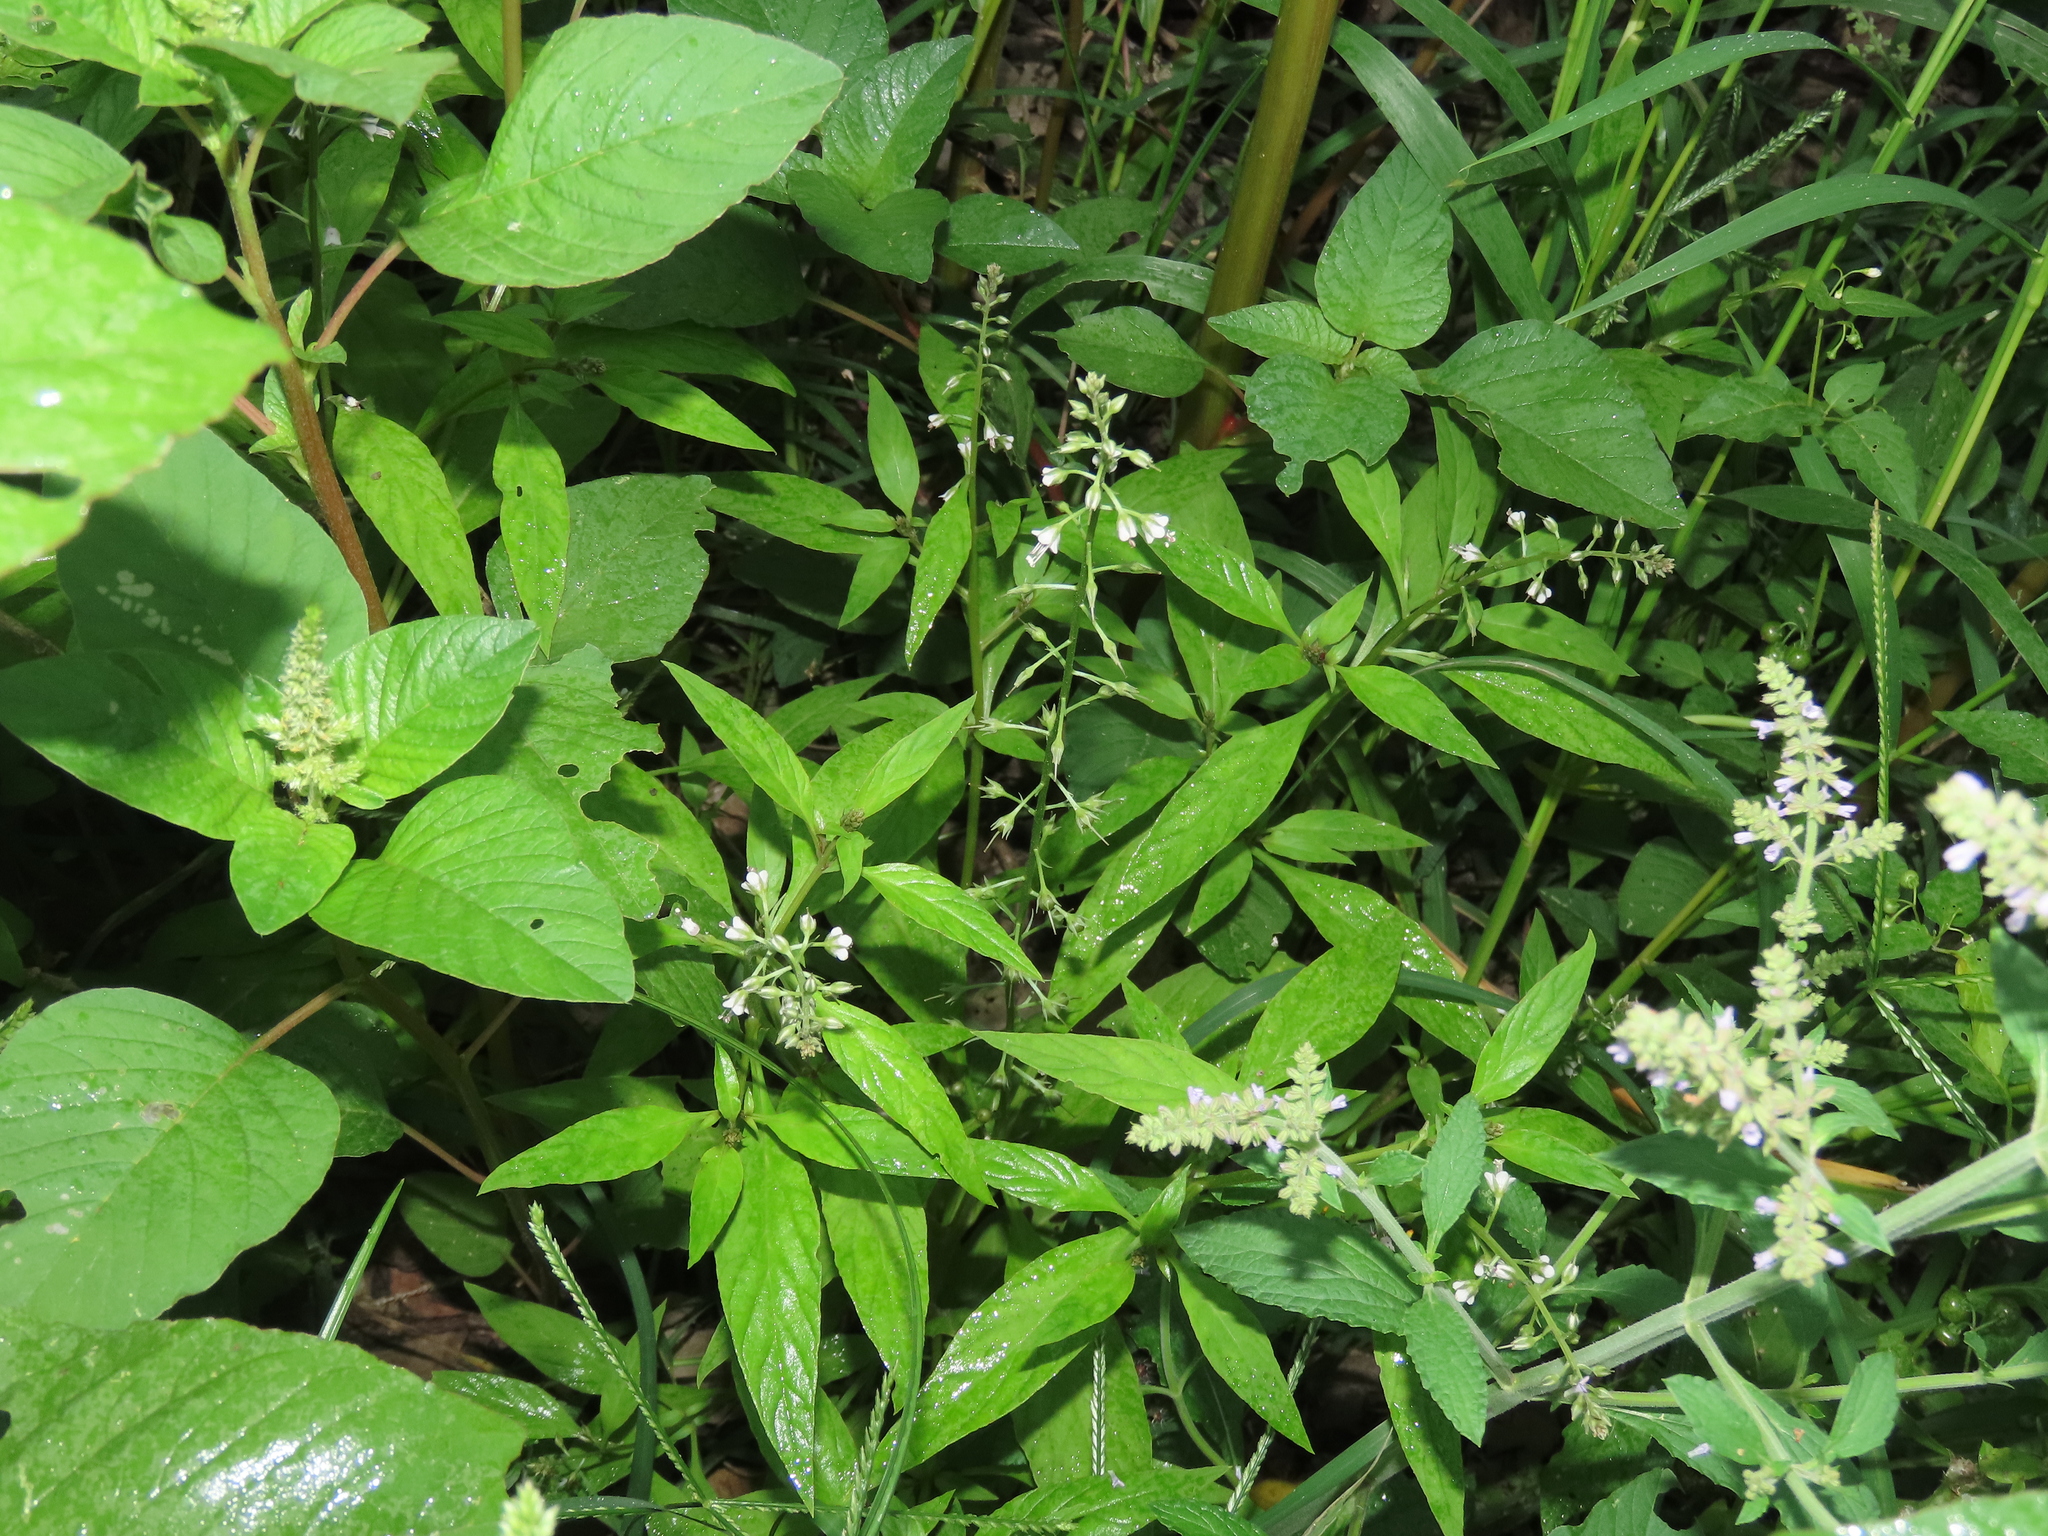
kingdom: Plantae
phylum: Tracheophyta
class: Magnoliopsida
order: Ericales
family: Primulaceae
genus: Lysimachia
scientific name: Lysimachia decurrens
